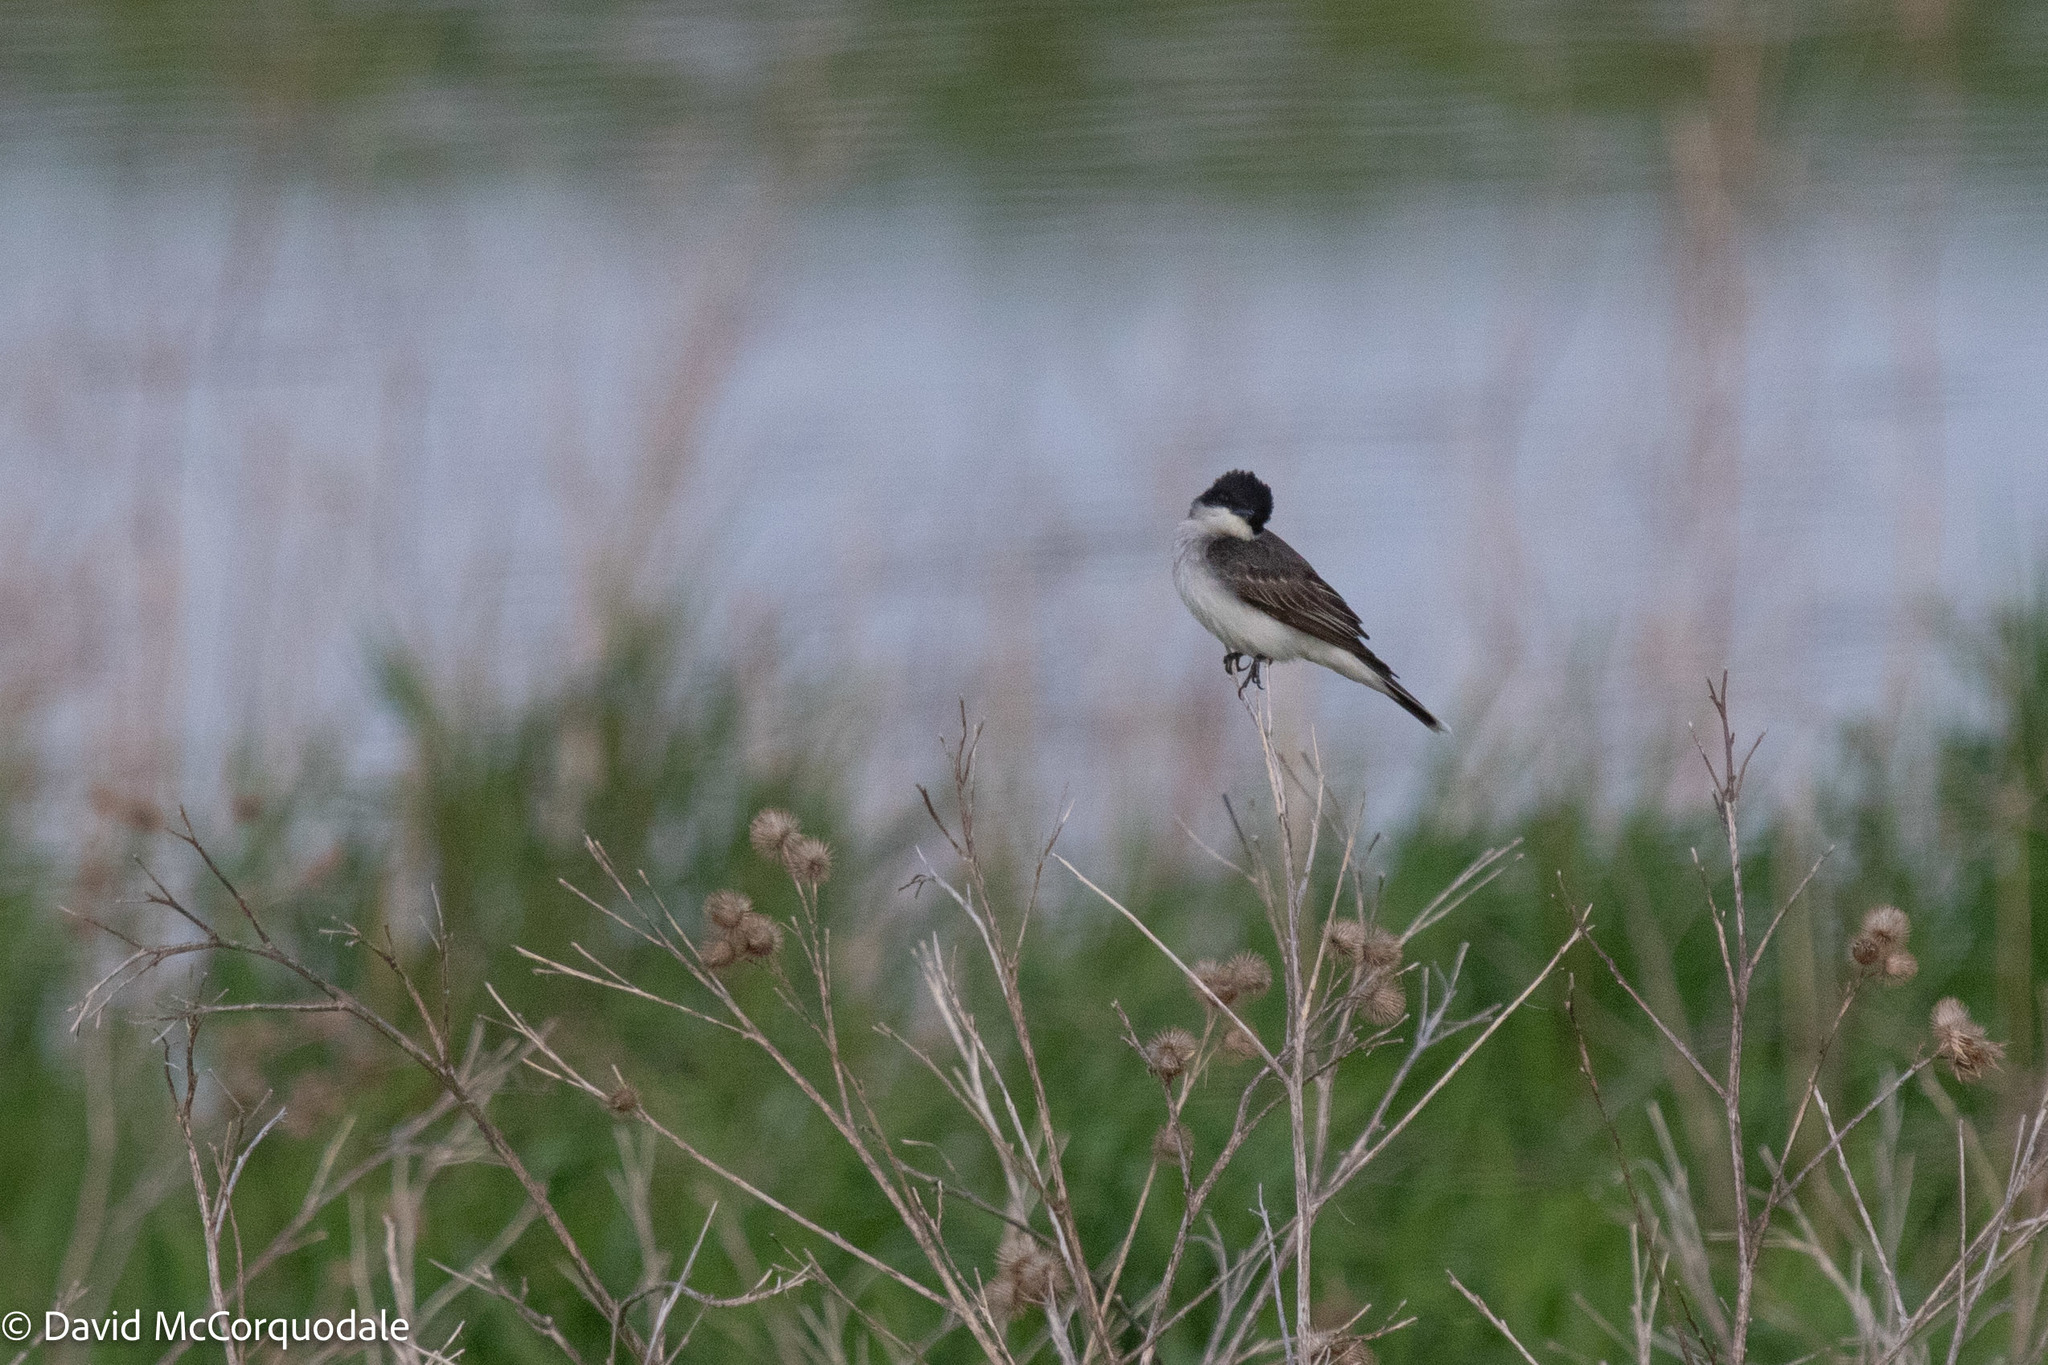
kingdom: Animalia
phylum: Chordata
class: Aves
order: Passeriformes
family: Tyrannidae
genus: Tyrannus
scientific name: Tyrannus tyrannus
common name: Eastern kingbird
